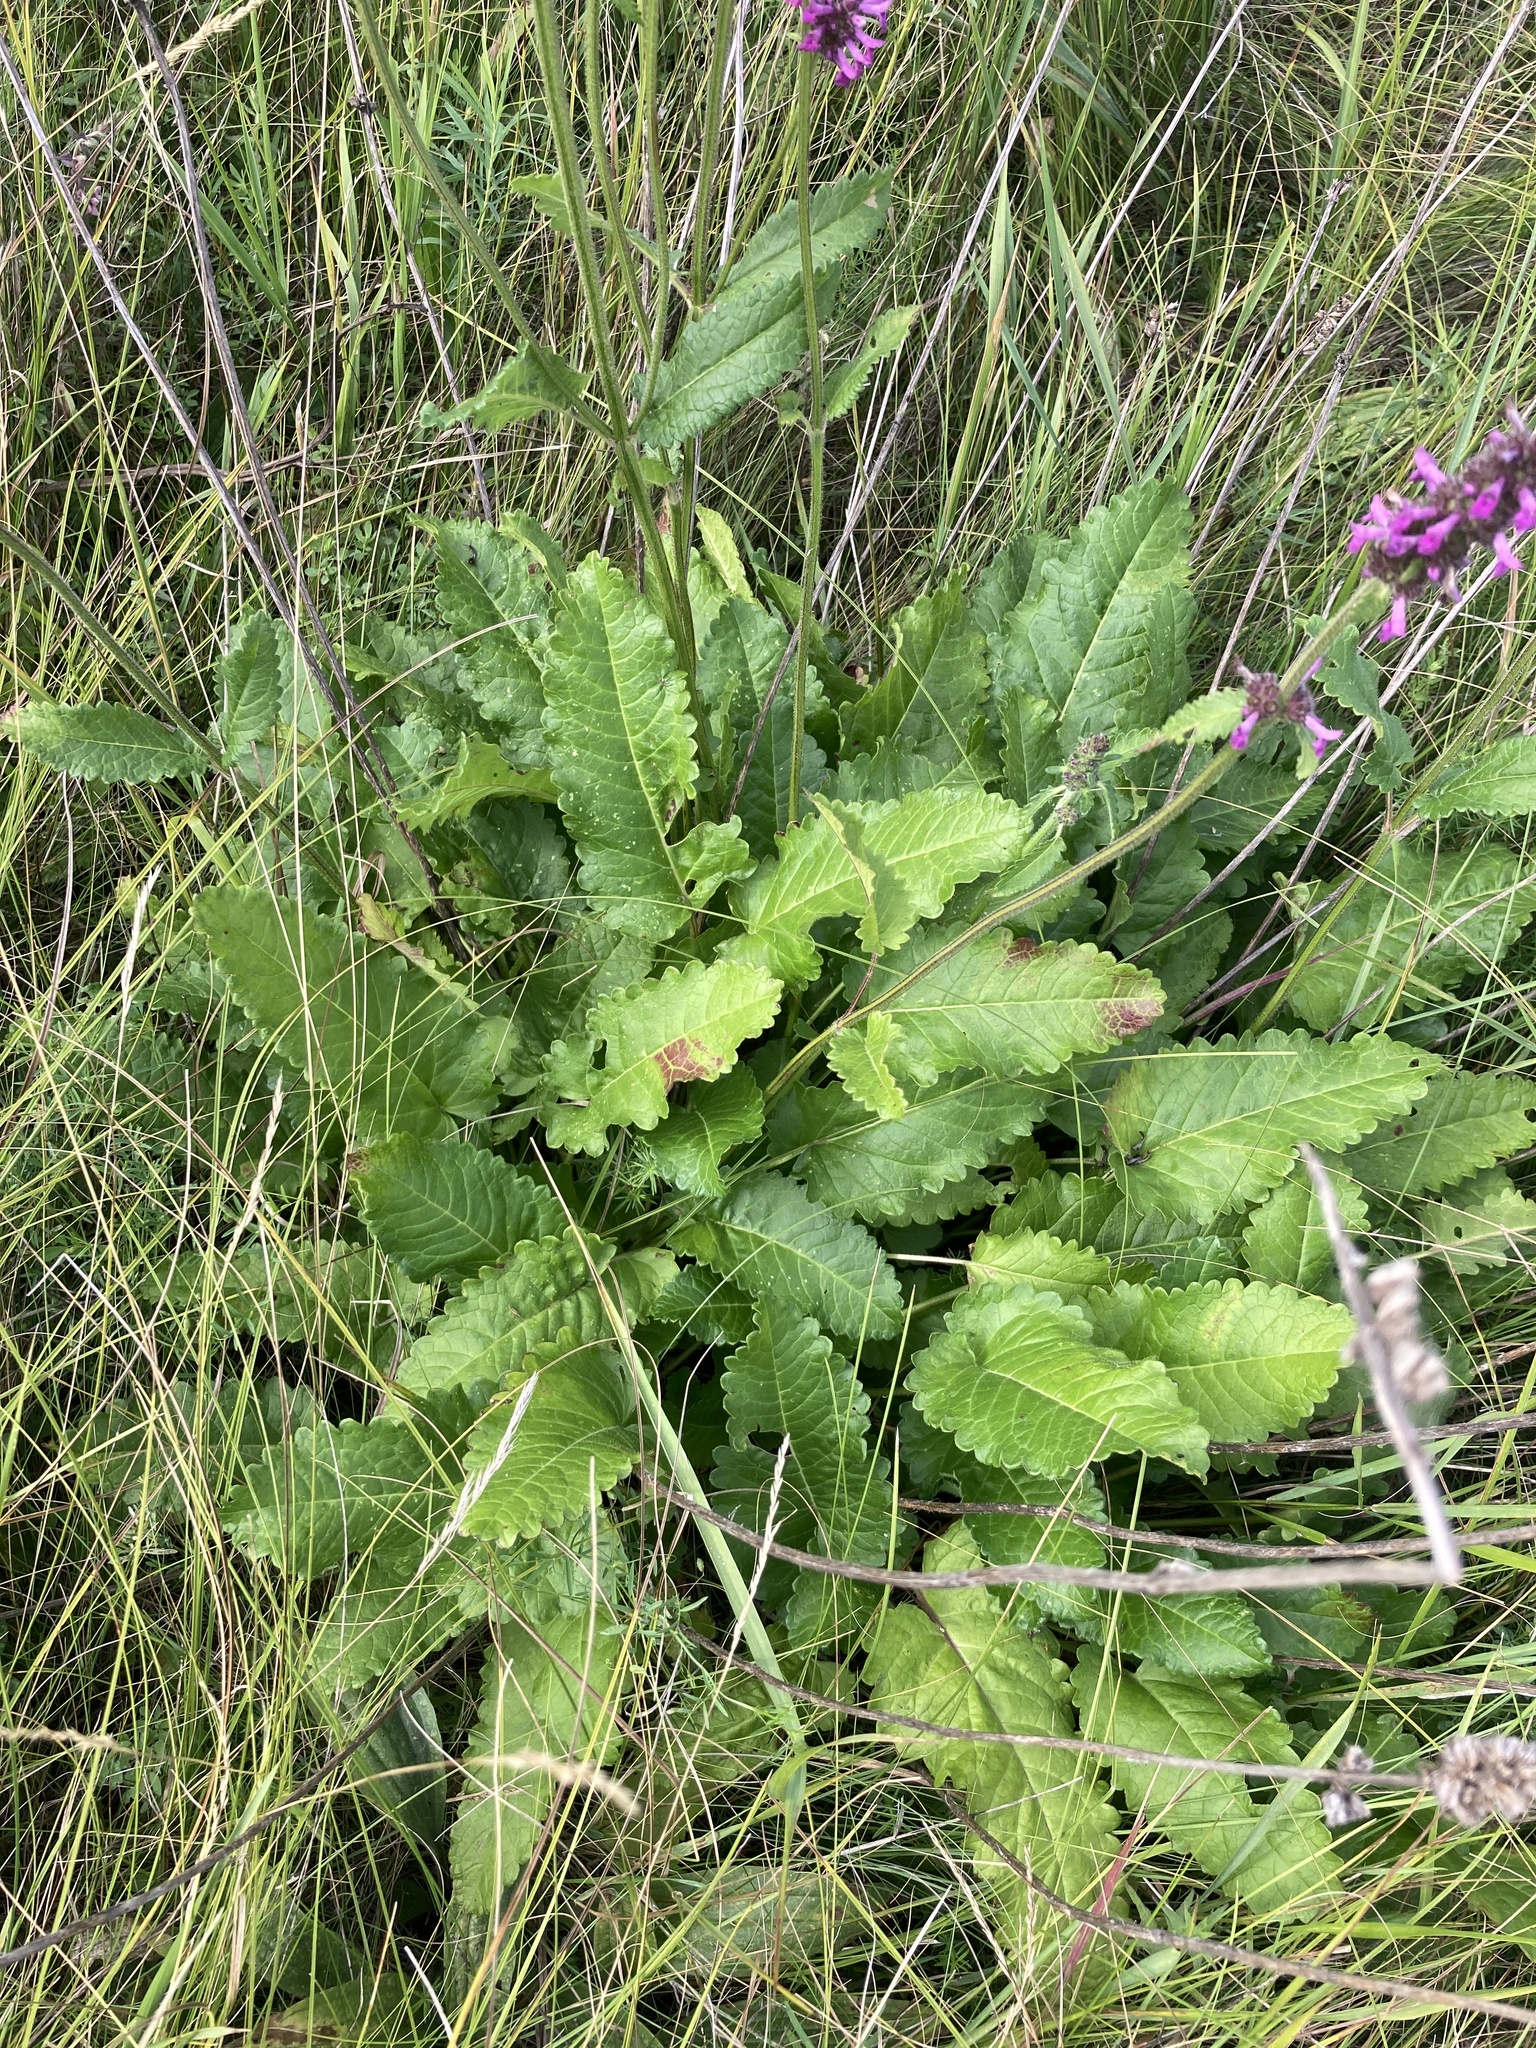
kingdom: Plantae
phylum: Tracheophyta
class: Magnoliopsida
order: Lamiales
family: Lamiaceae
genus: Betonica
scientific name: Betonica officinalis
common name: Bishop's-wort
